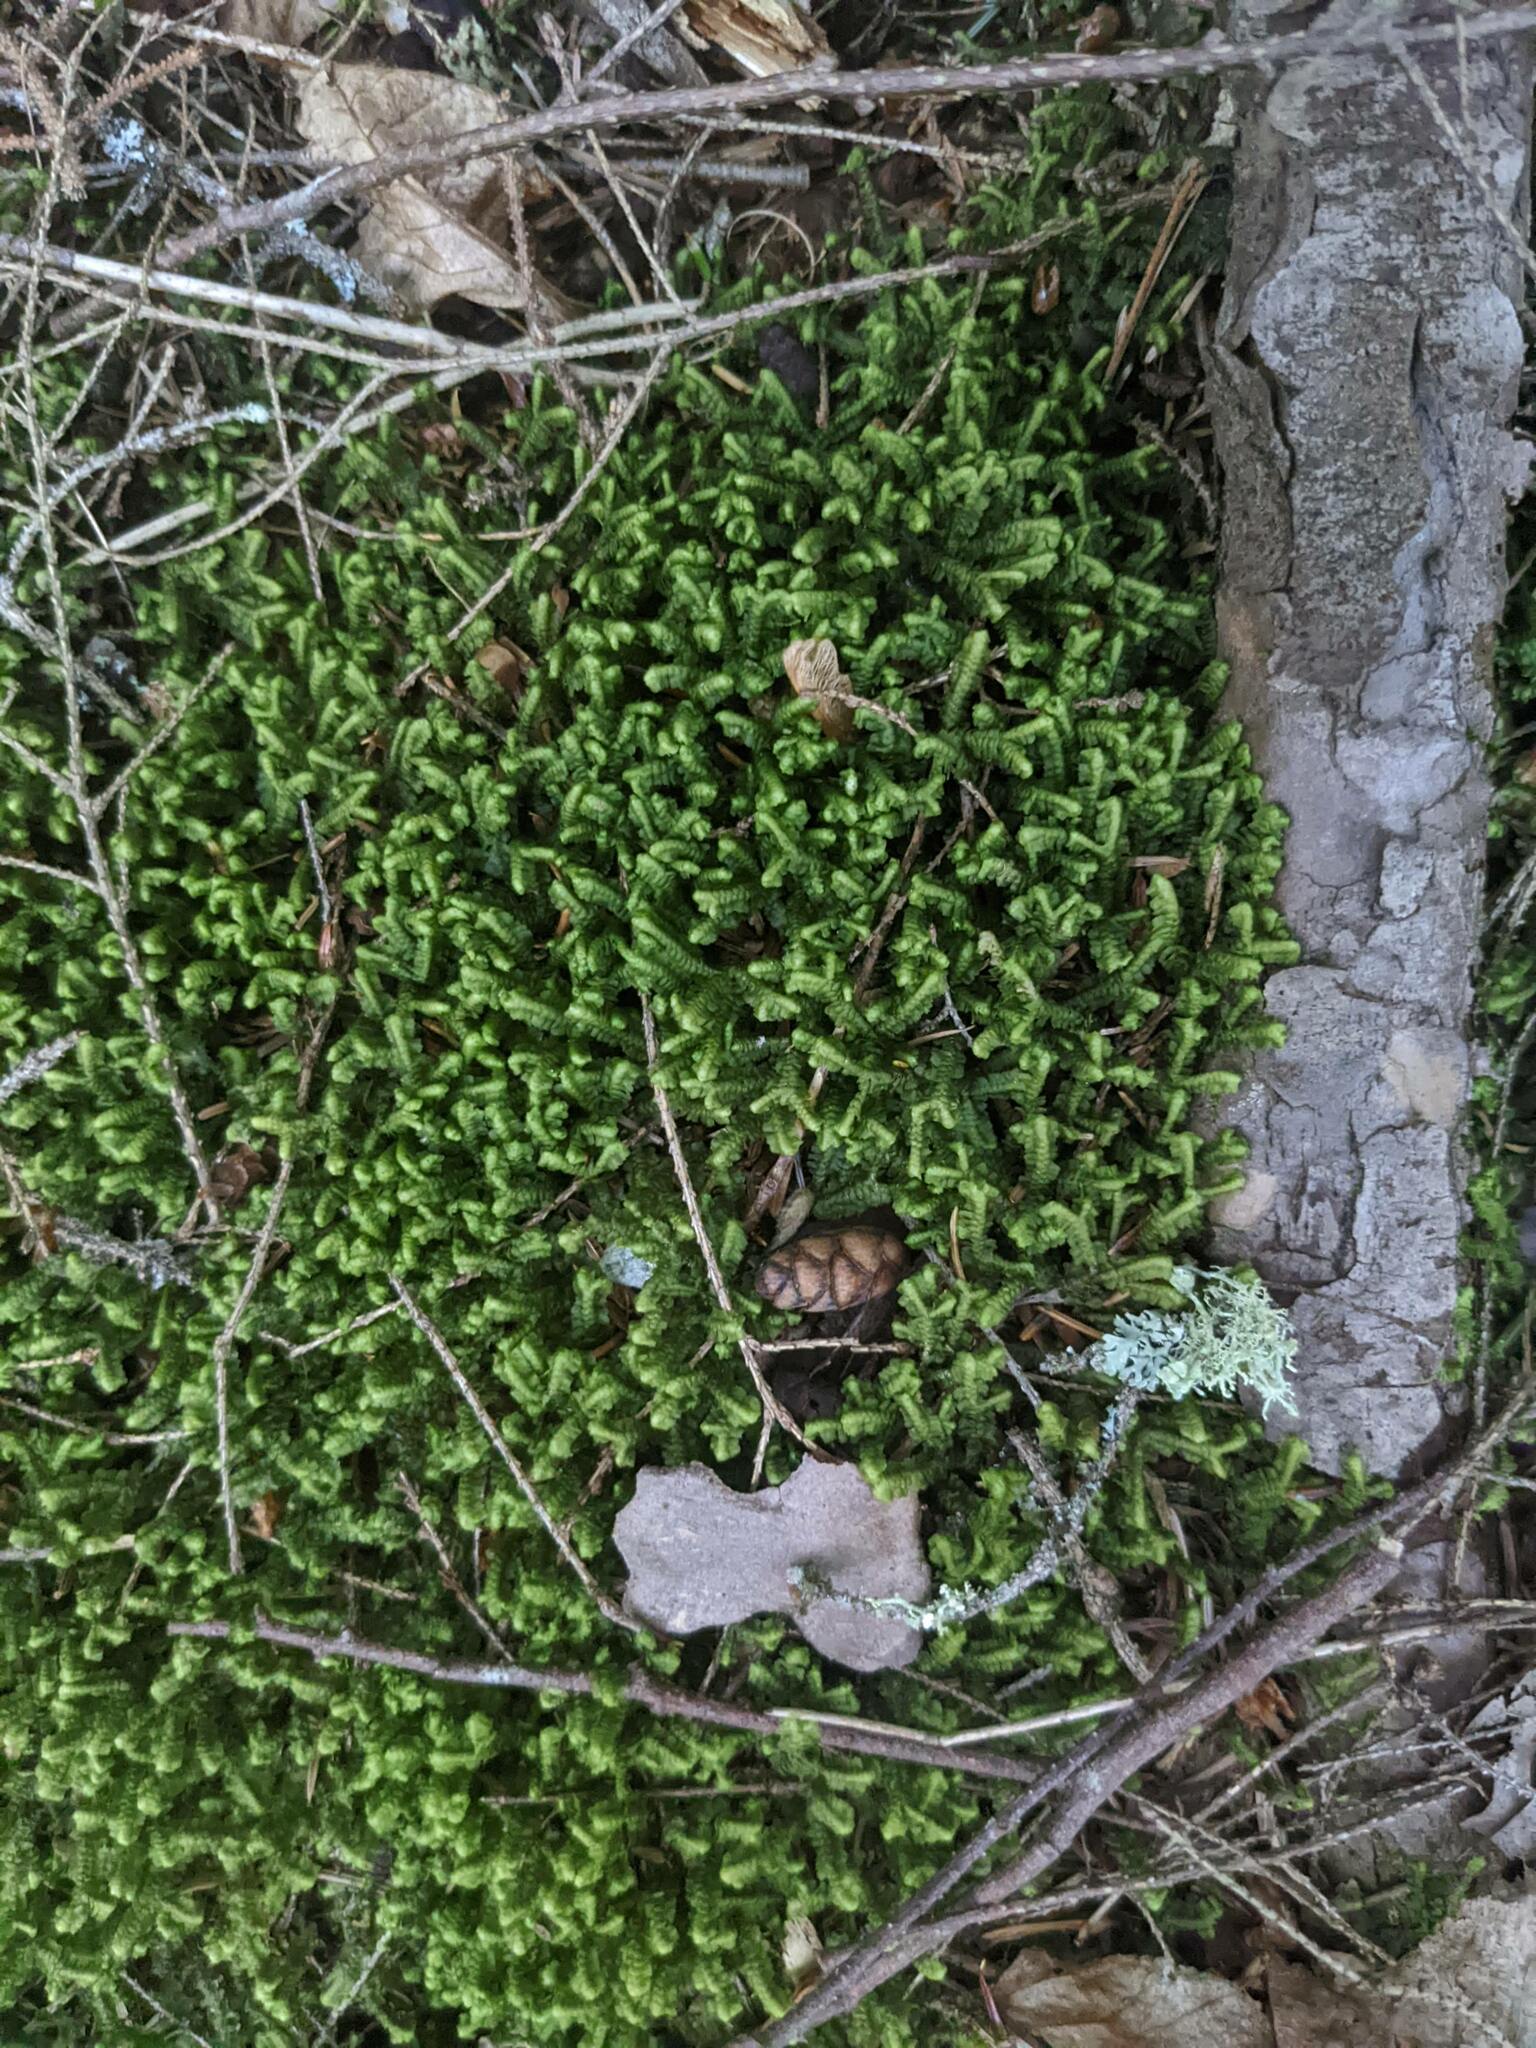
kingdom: Plantae
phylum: Marchantiophyta
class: Jungermanniopsida
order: Jungermanniales
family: Lepidoziaceae
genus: Bazzania
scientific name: Bazzania trilobata
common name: Three-lobed whipwort
